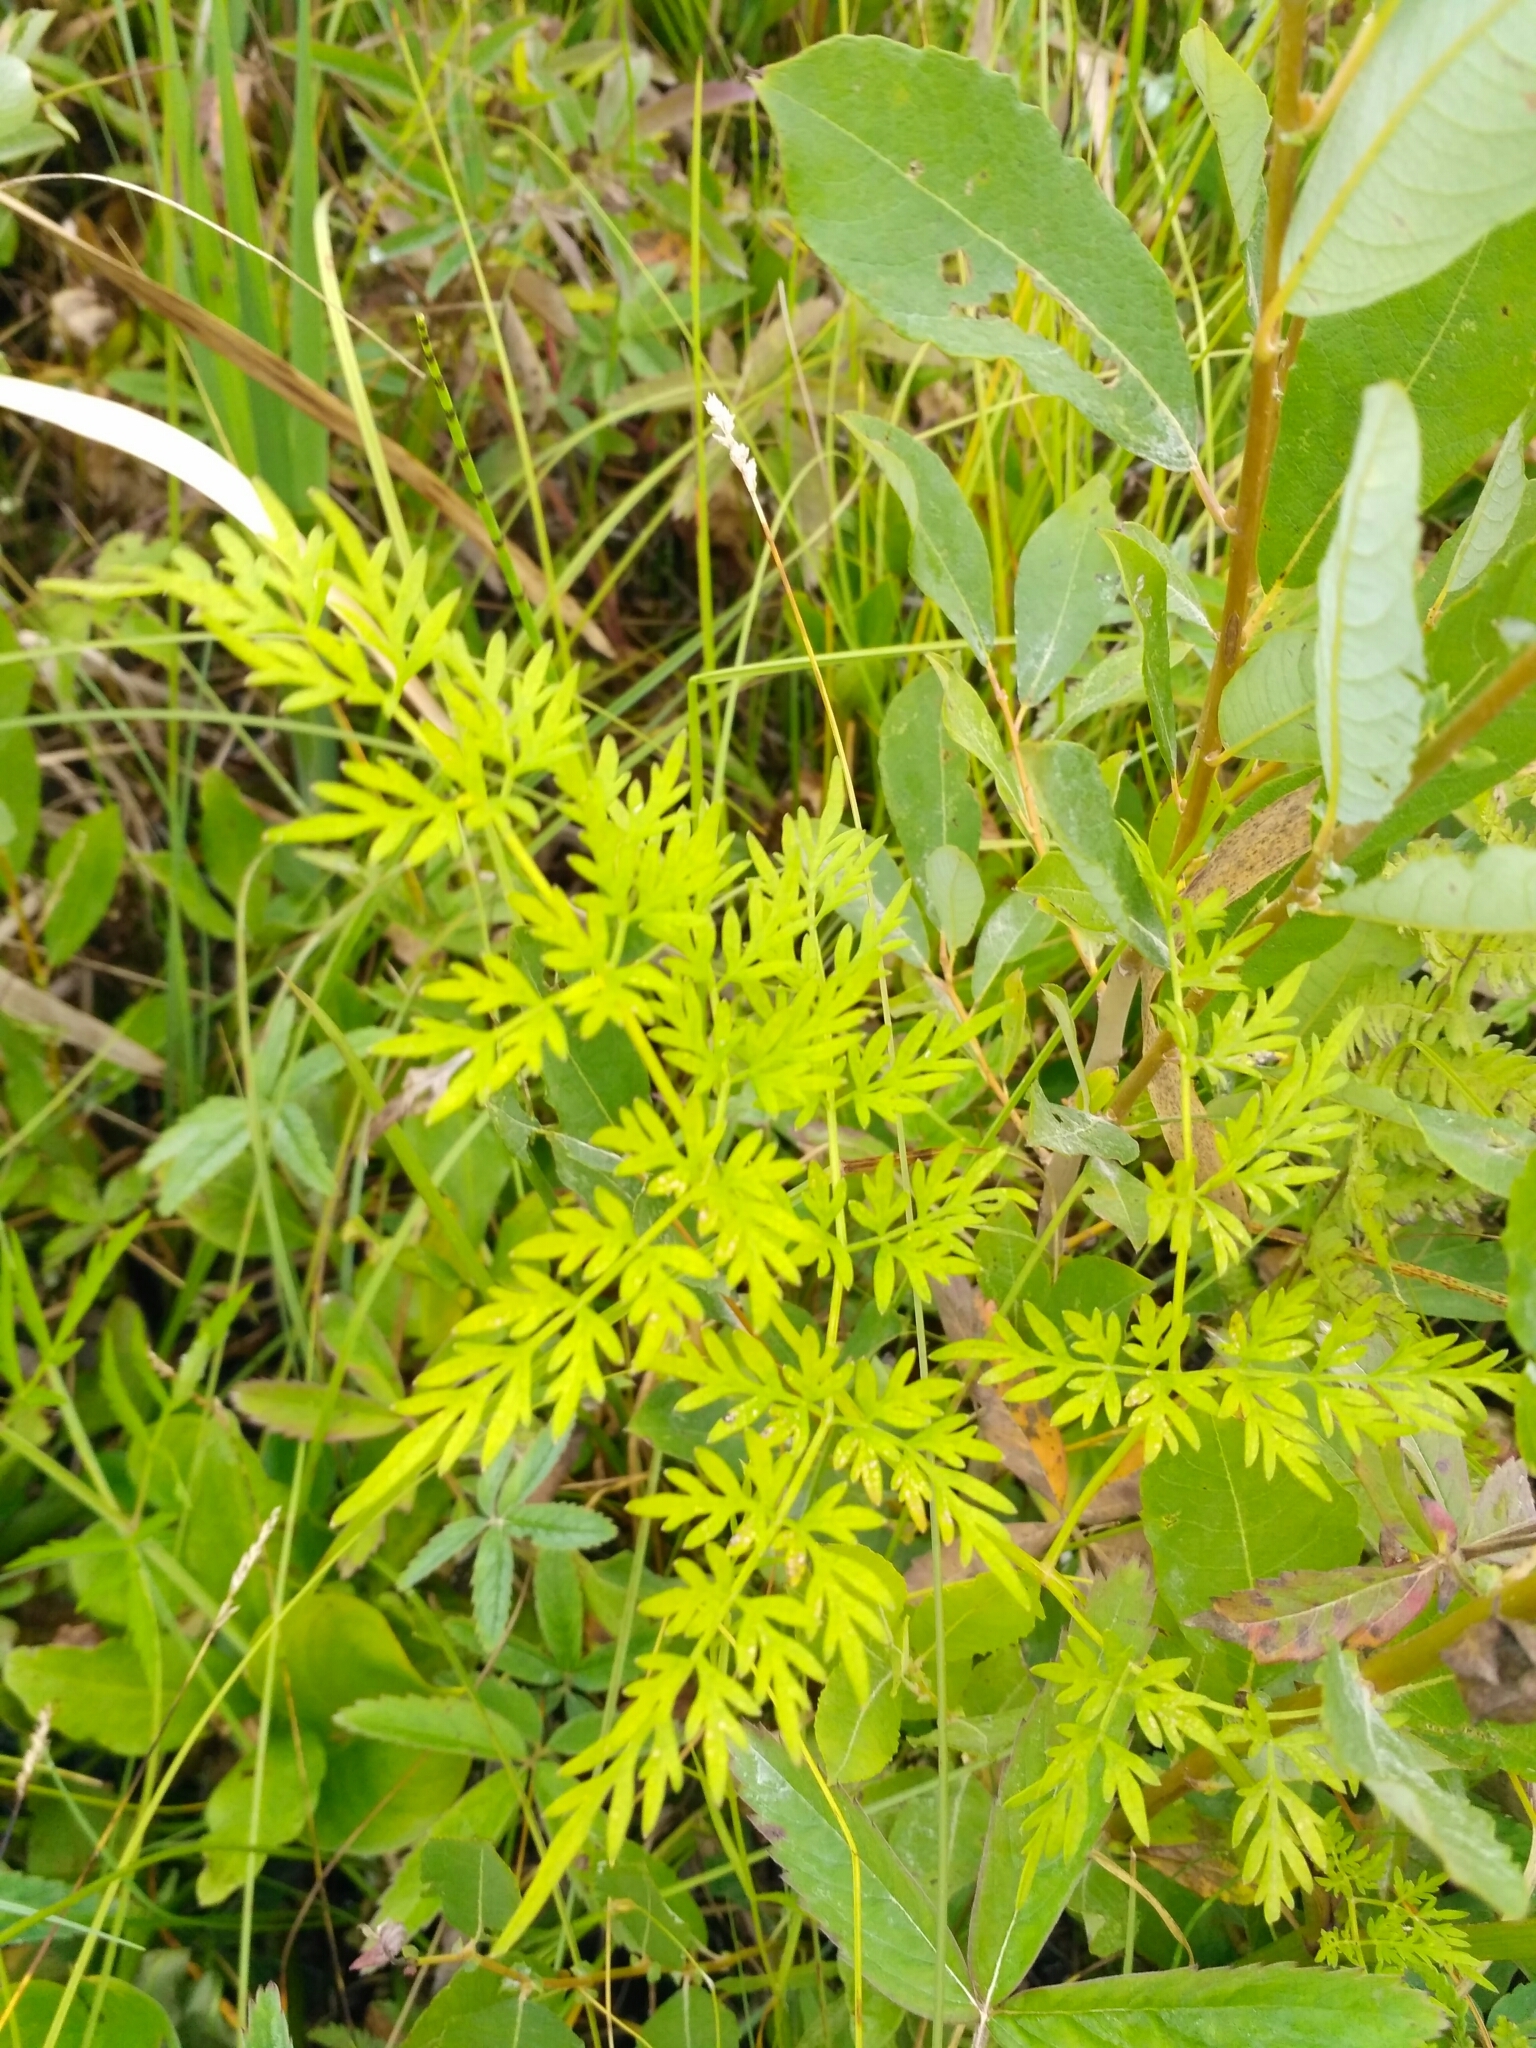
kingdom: Plantae
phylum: Tracheophyta
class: Magnoliopsida
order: Apiales
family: Apiaceae
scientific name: Apiaceae
